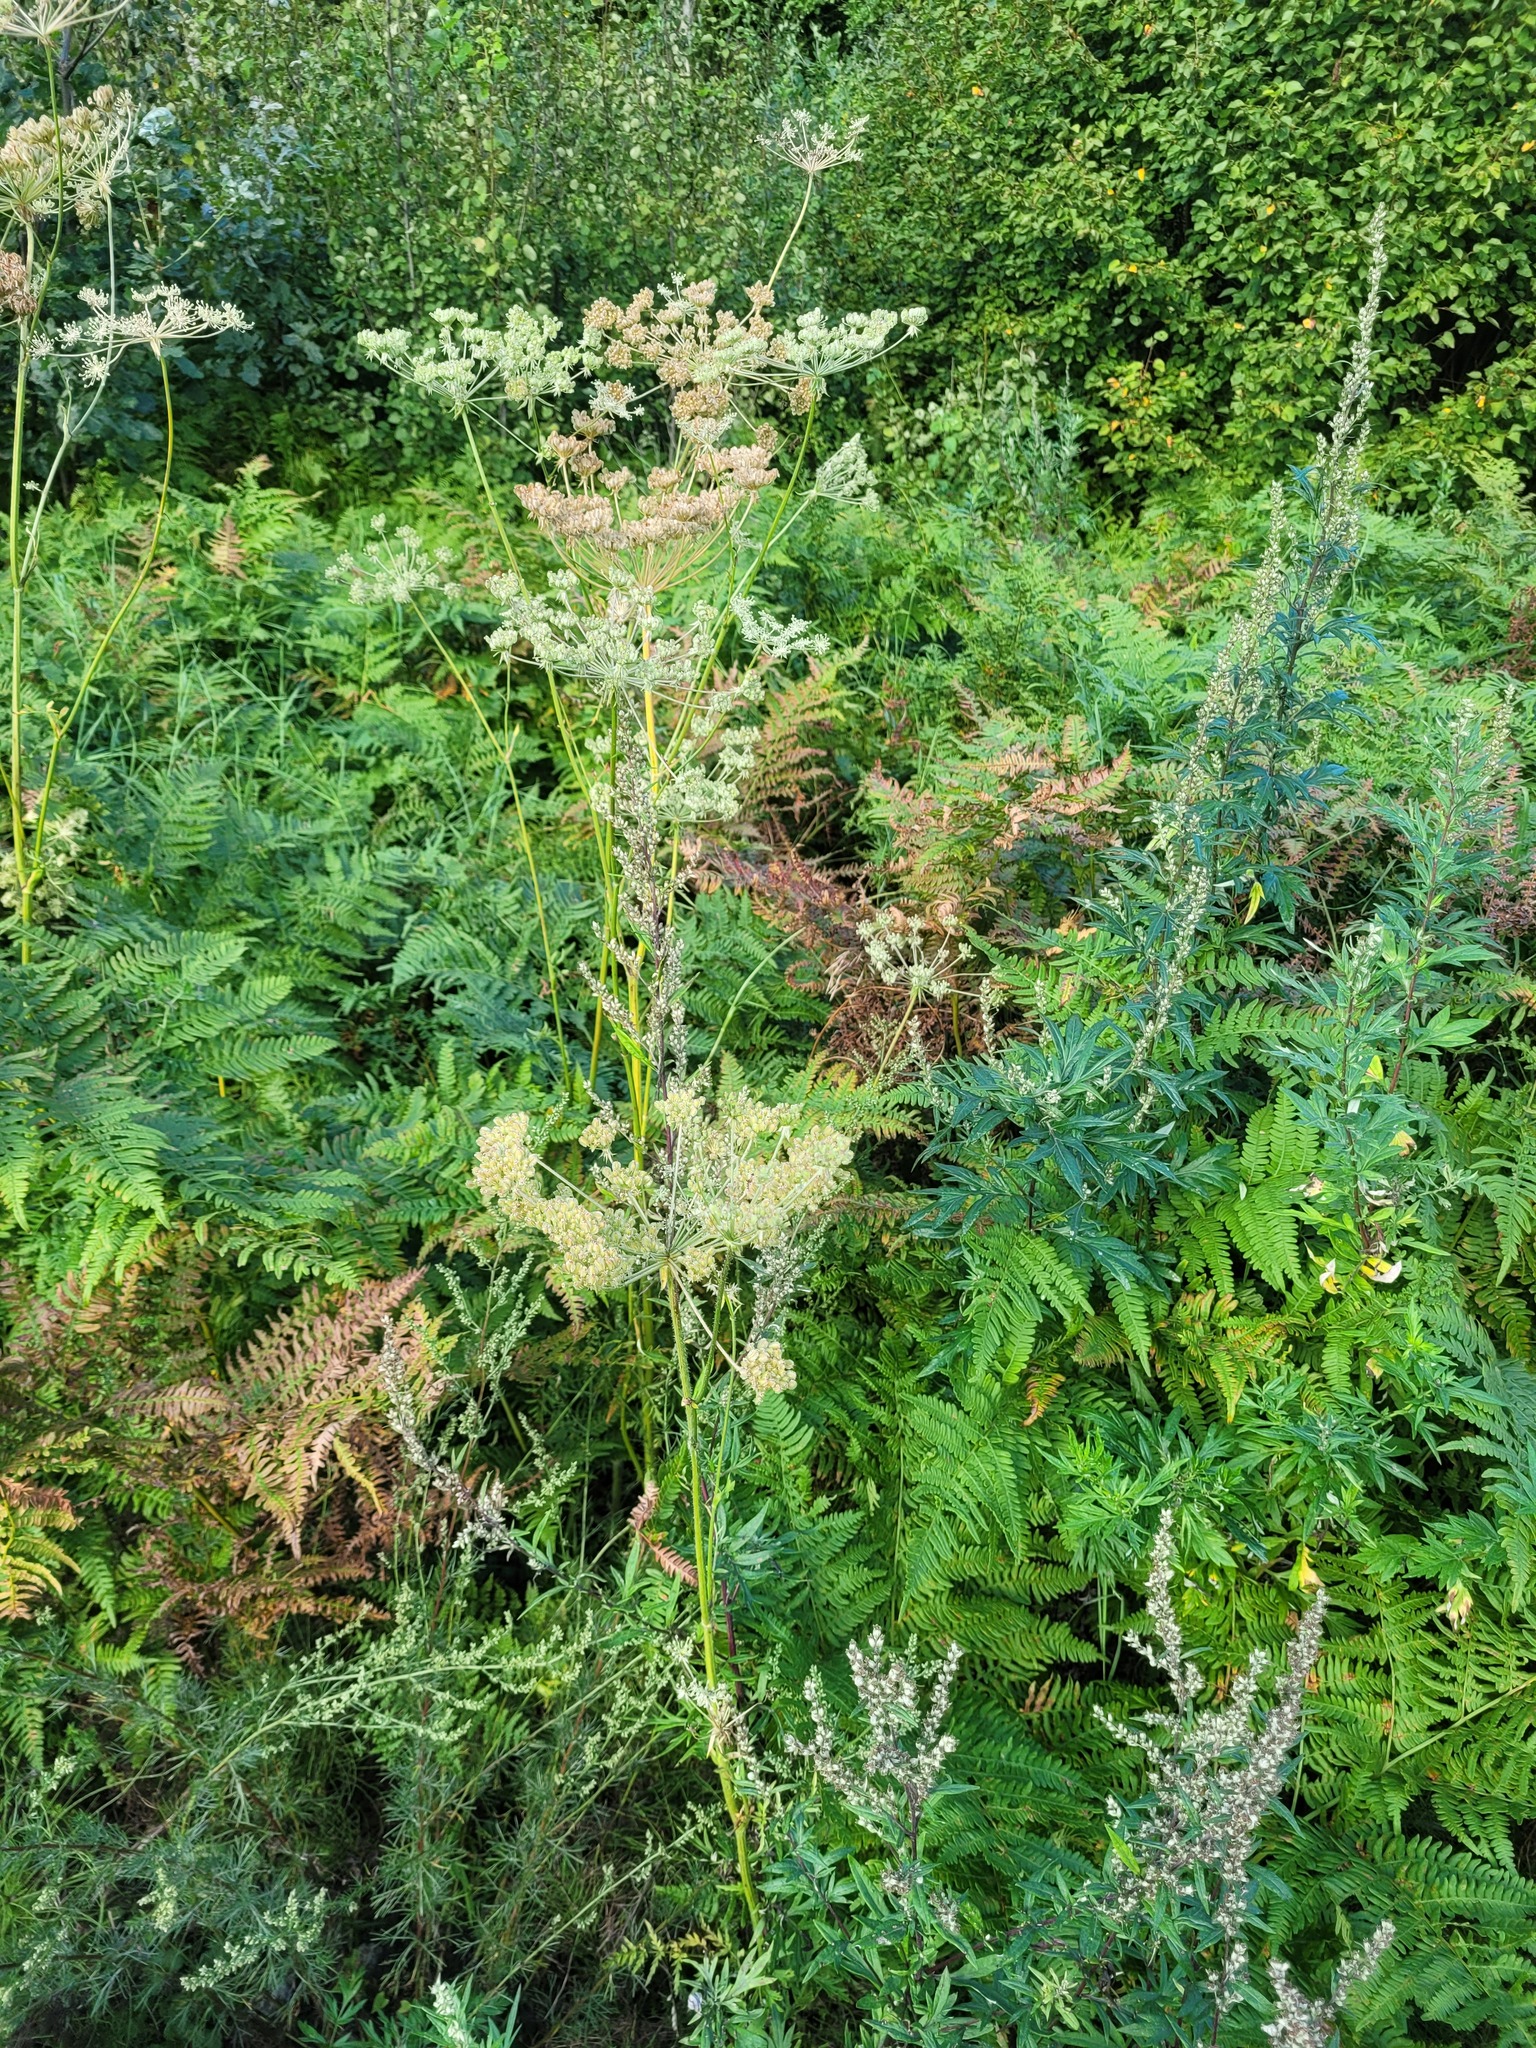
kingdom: Plantae
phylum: Tracheophyta
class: Magnoliopsida
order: Apiales
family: Apiaceae
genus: Silphiodaucus
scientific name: Silphiodaucus prutenicus
